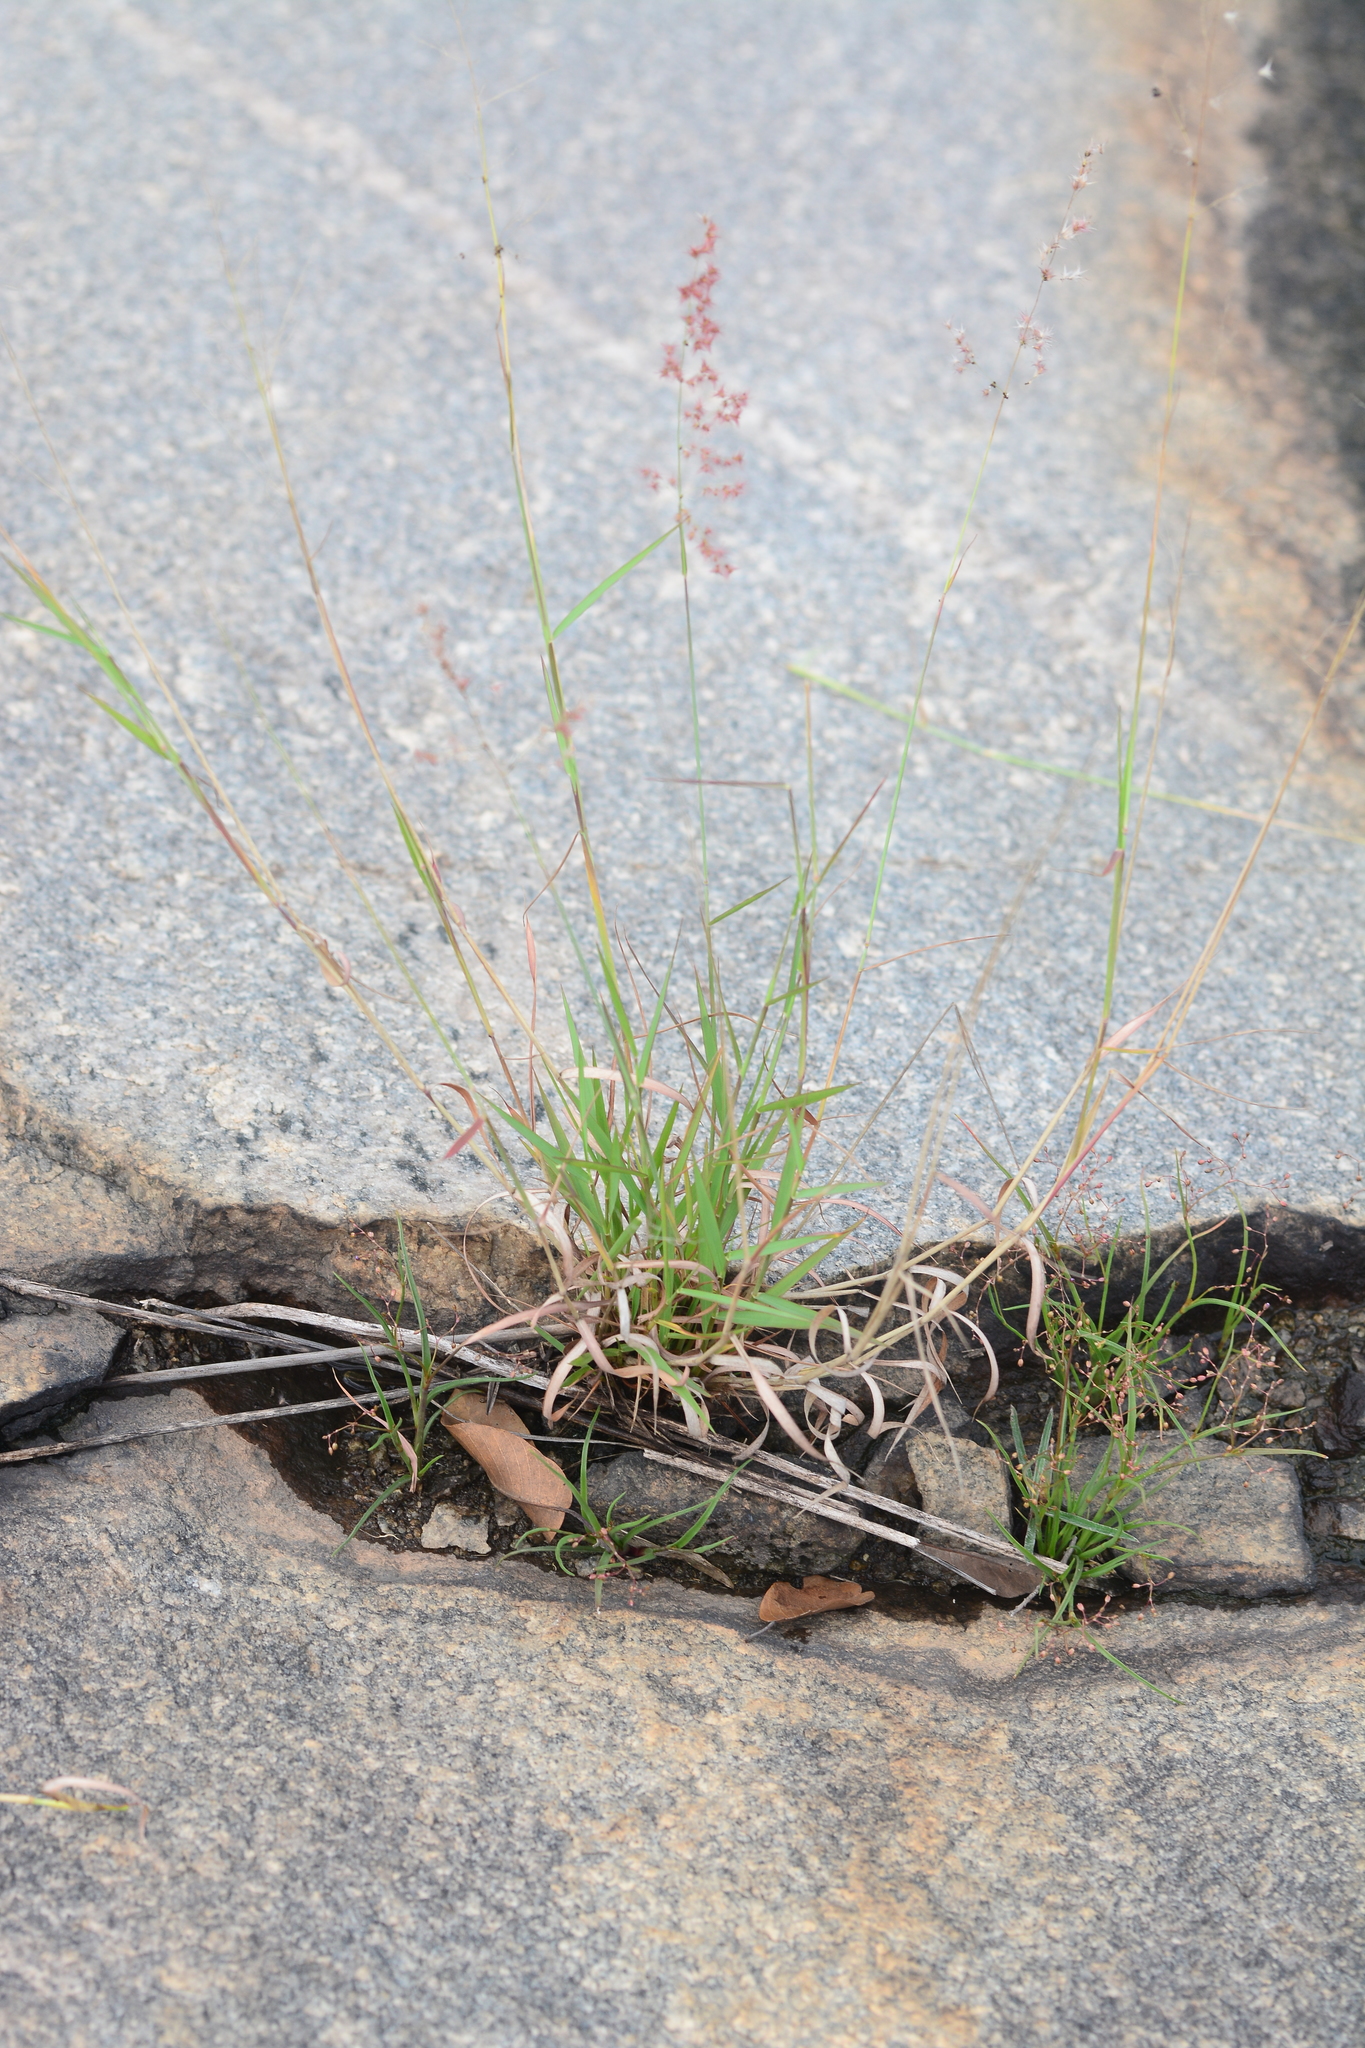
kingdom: Plantae
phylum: Tracheophyta
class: Liliopsida
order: Poales
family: Poaceae
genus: Melinis
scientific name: Melinis repens
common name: Rose natal grass
